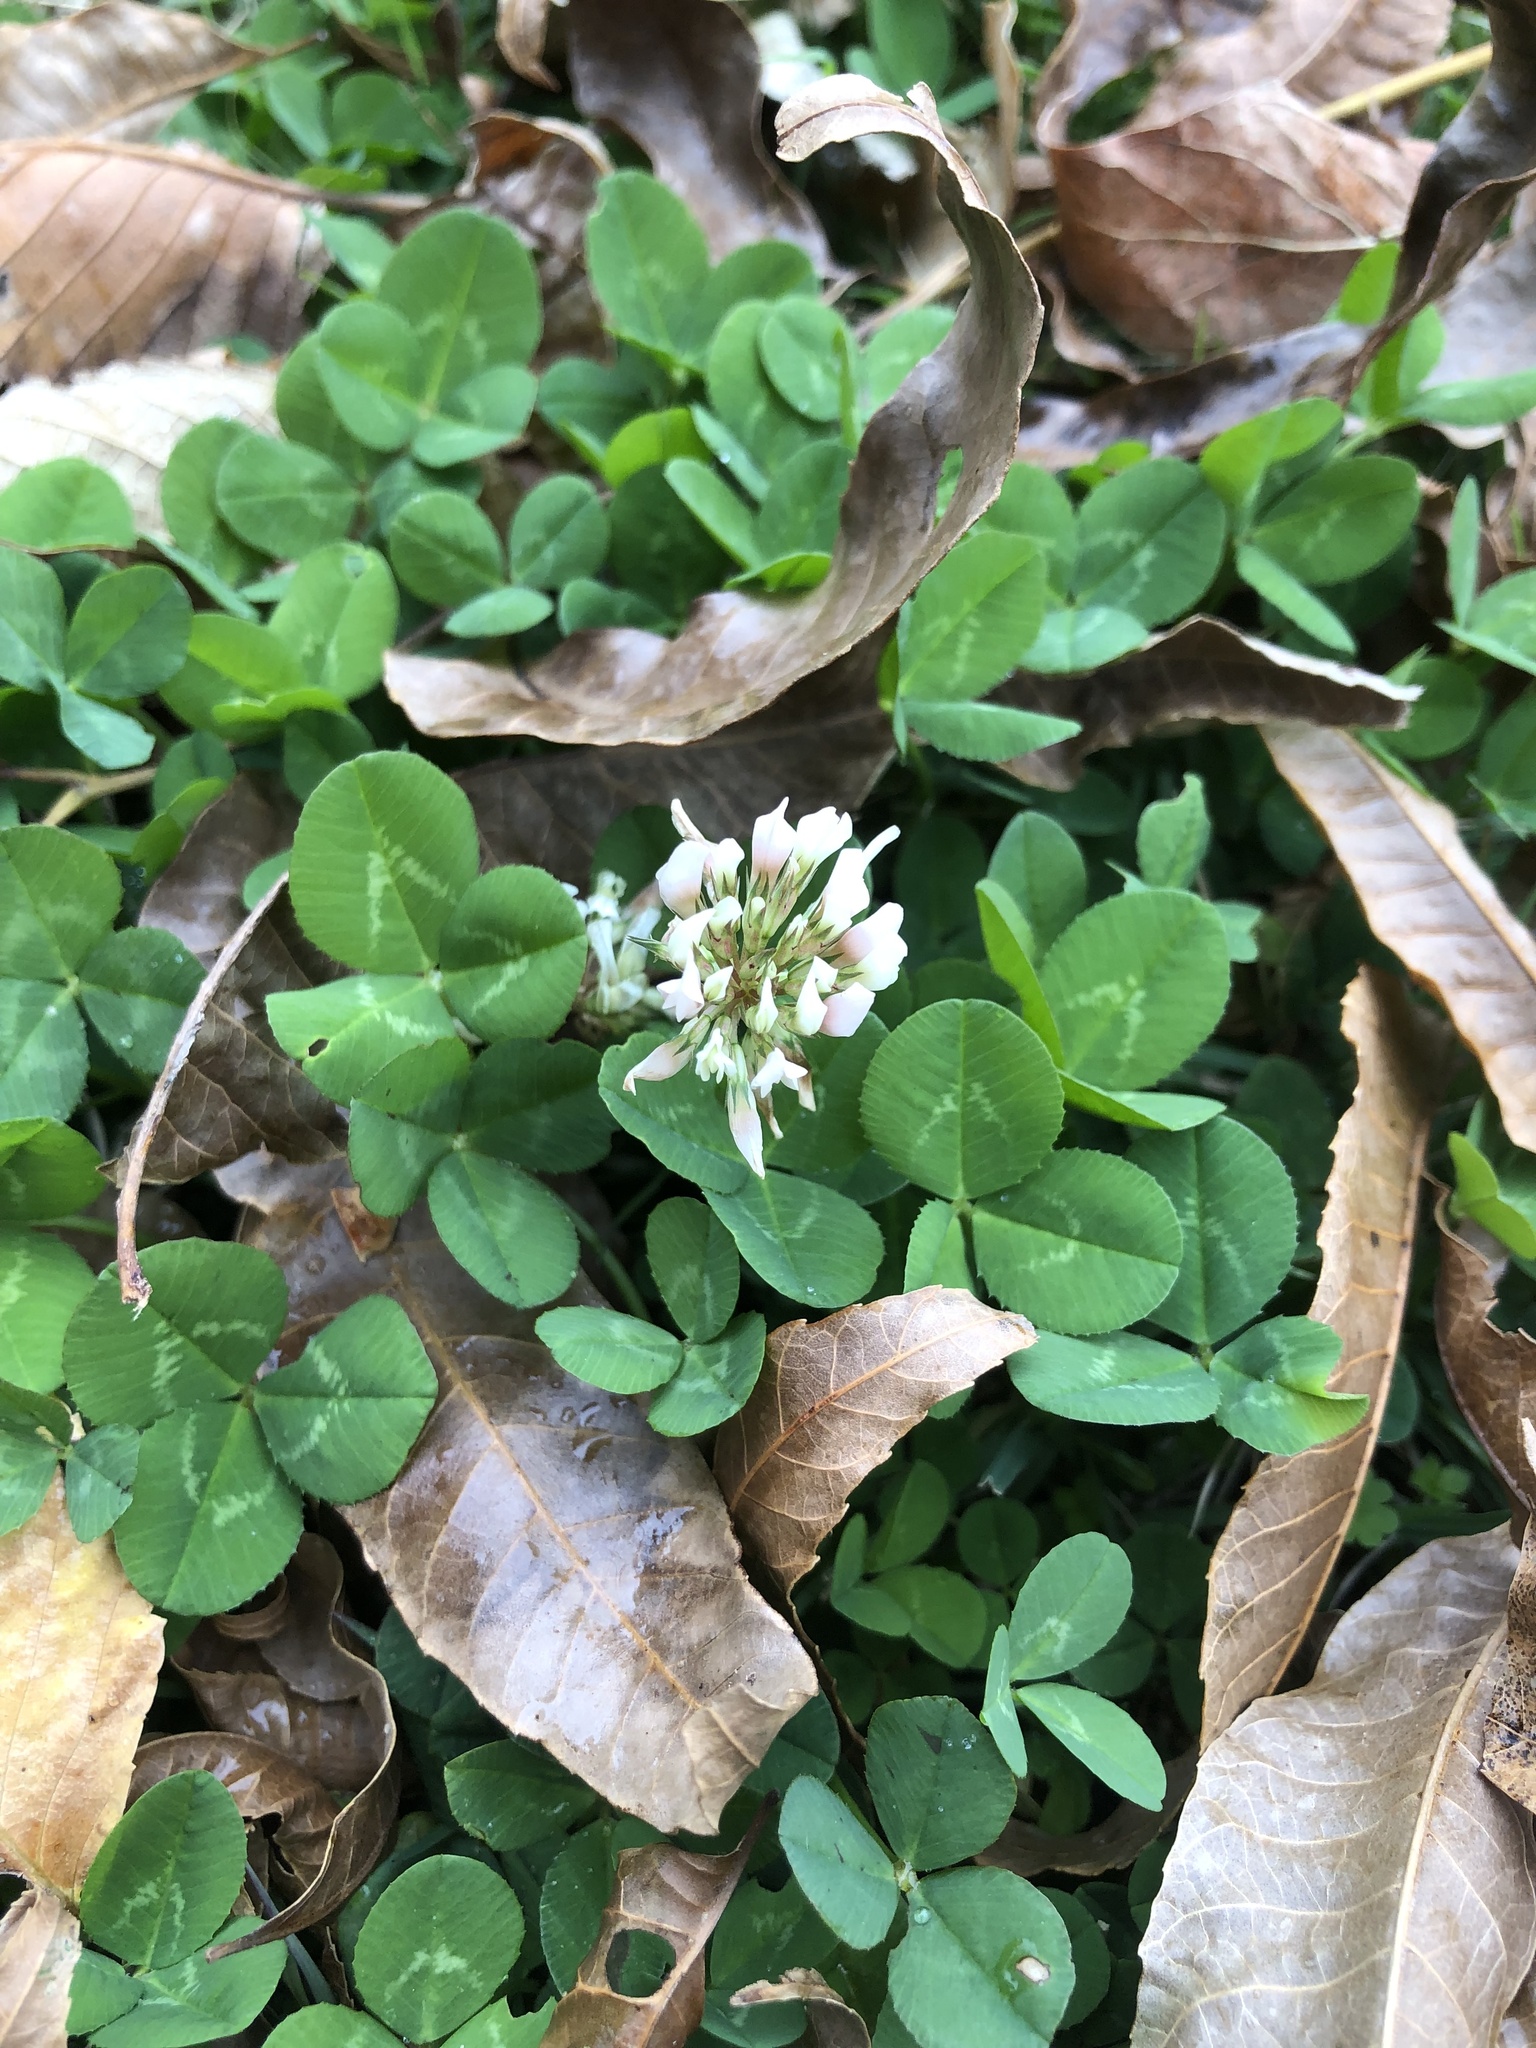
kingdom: Plantae
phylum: Tracheophyta
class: Magnoliopsida
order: Fabales
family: Fabaceae
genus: Trifolium
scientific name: Trifolium repens
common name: White clover
